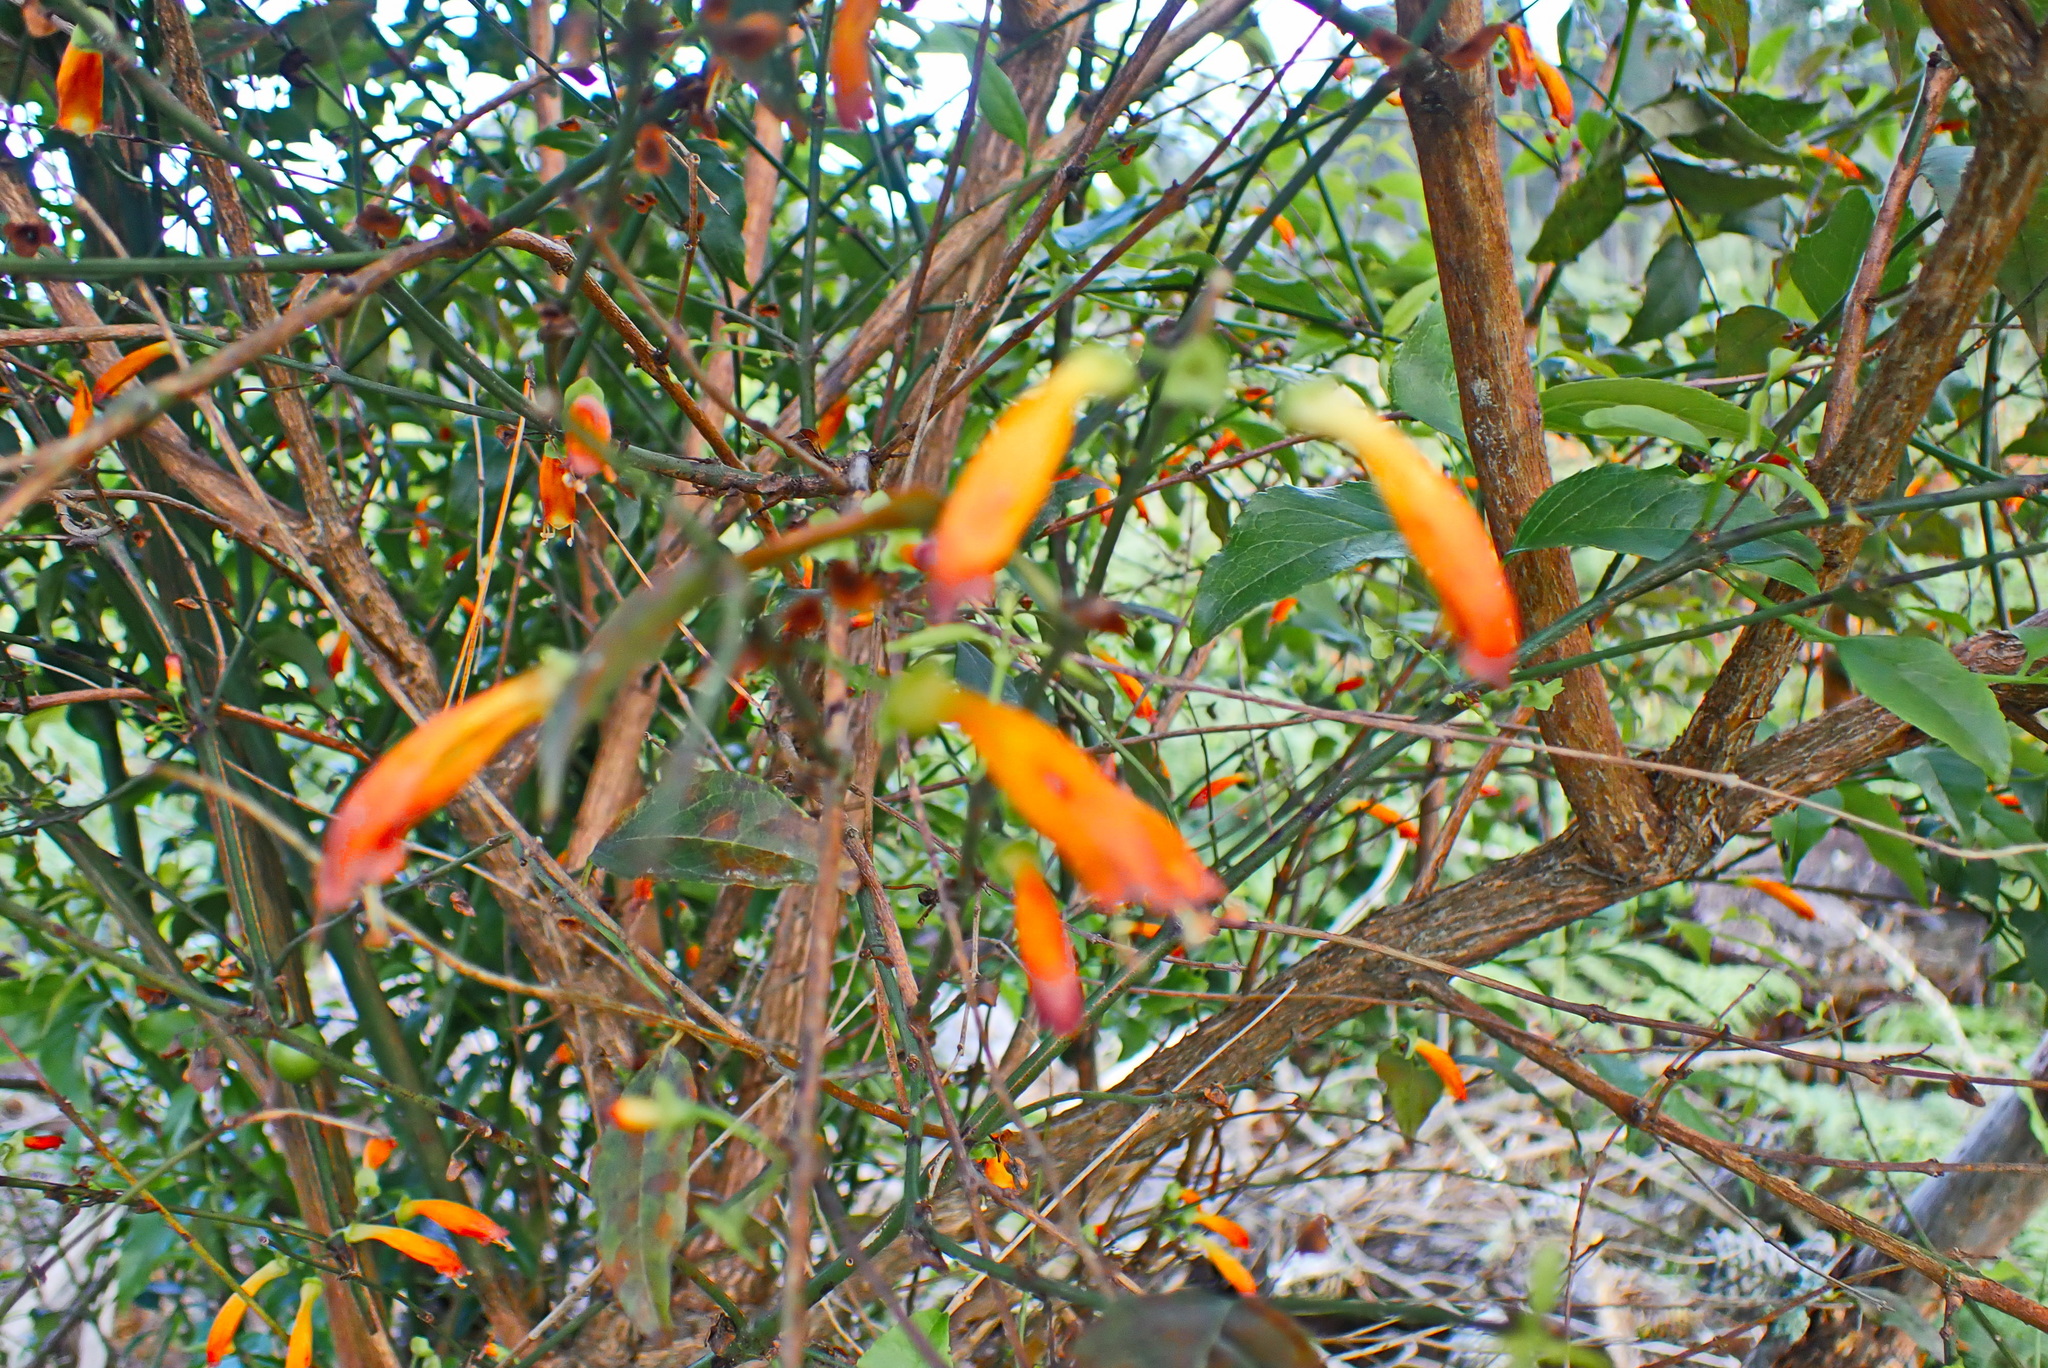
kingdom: Plantae
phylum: Tracheophyta
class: Magnoliopsida
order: Lamiales
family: Stilbaceae
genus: Halleria
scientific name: Halleria lucida
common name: Tree fuschia
